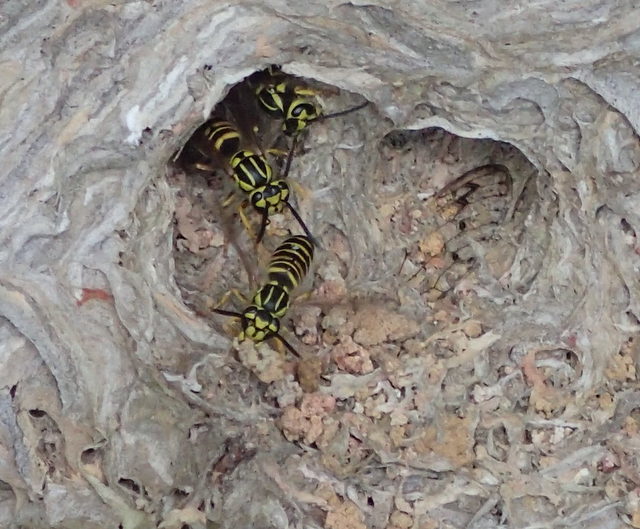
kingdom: Animalia
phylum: Arthropoda
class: Insecta
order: Hymenoptera
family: Vespidae
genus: Vespula
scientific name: Vespula squamosa
